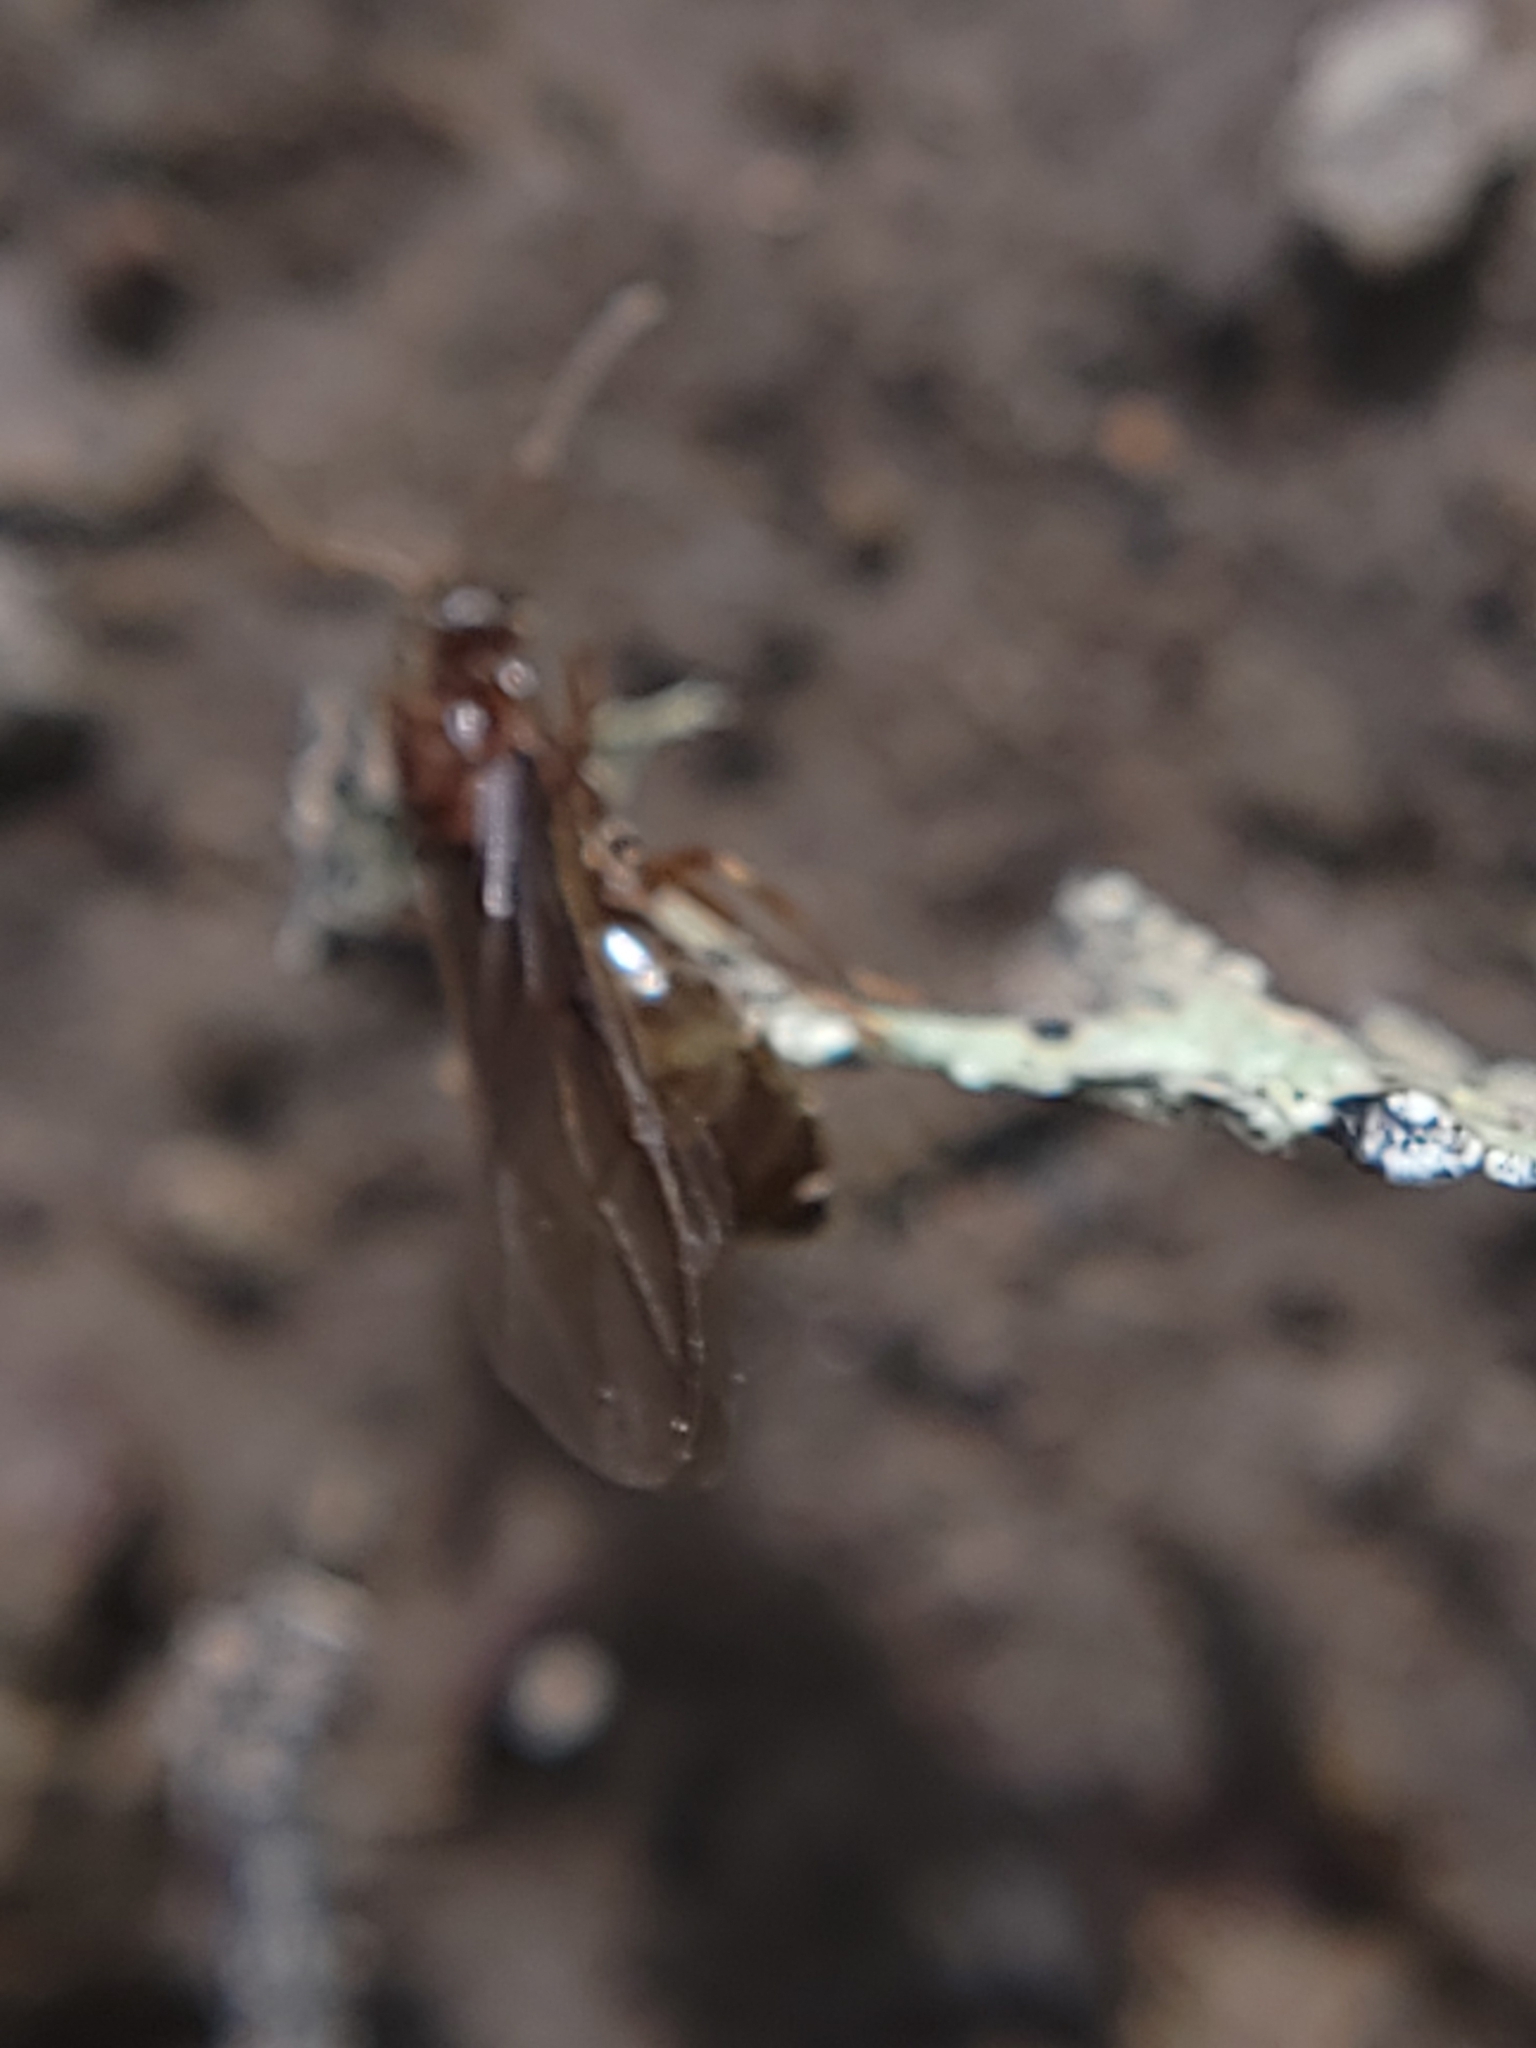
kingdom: Animalia
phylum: Arthropoda
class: Insecta
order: Hymenoptera
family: Formicidae
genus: Prenolepis
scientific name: Prenolepis imparis
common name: Small honey ant
